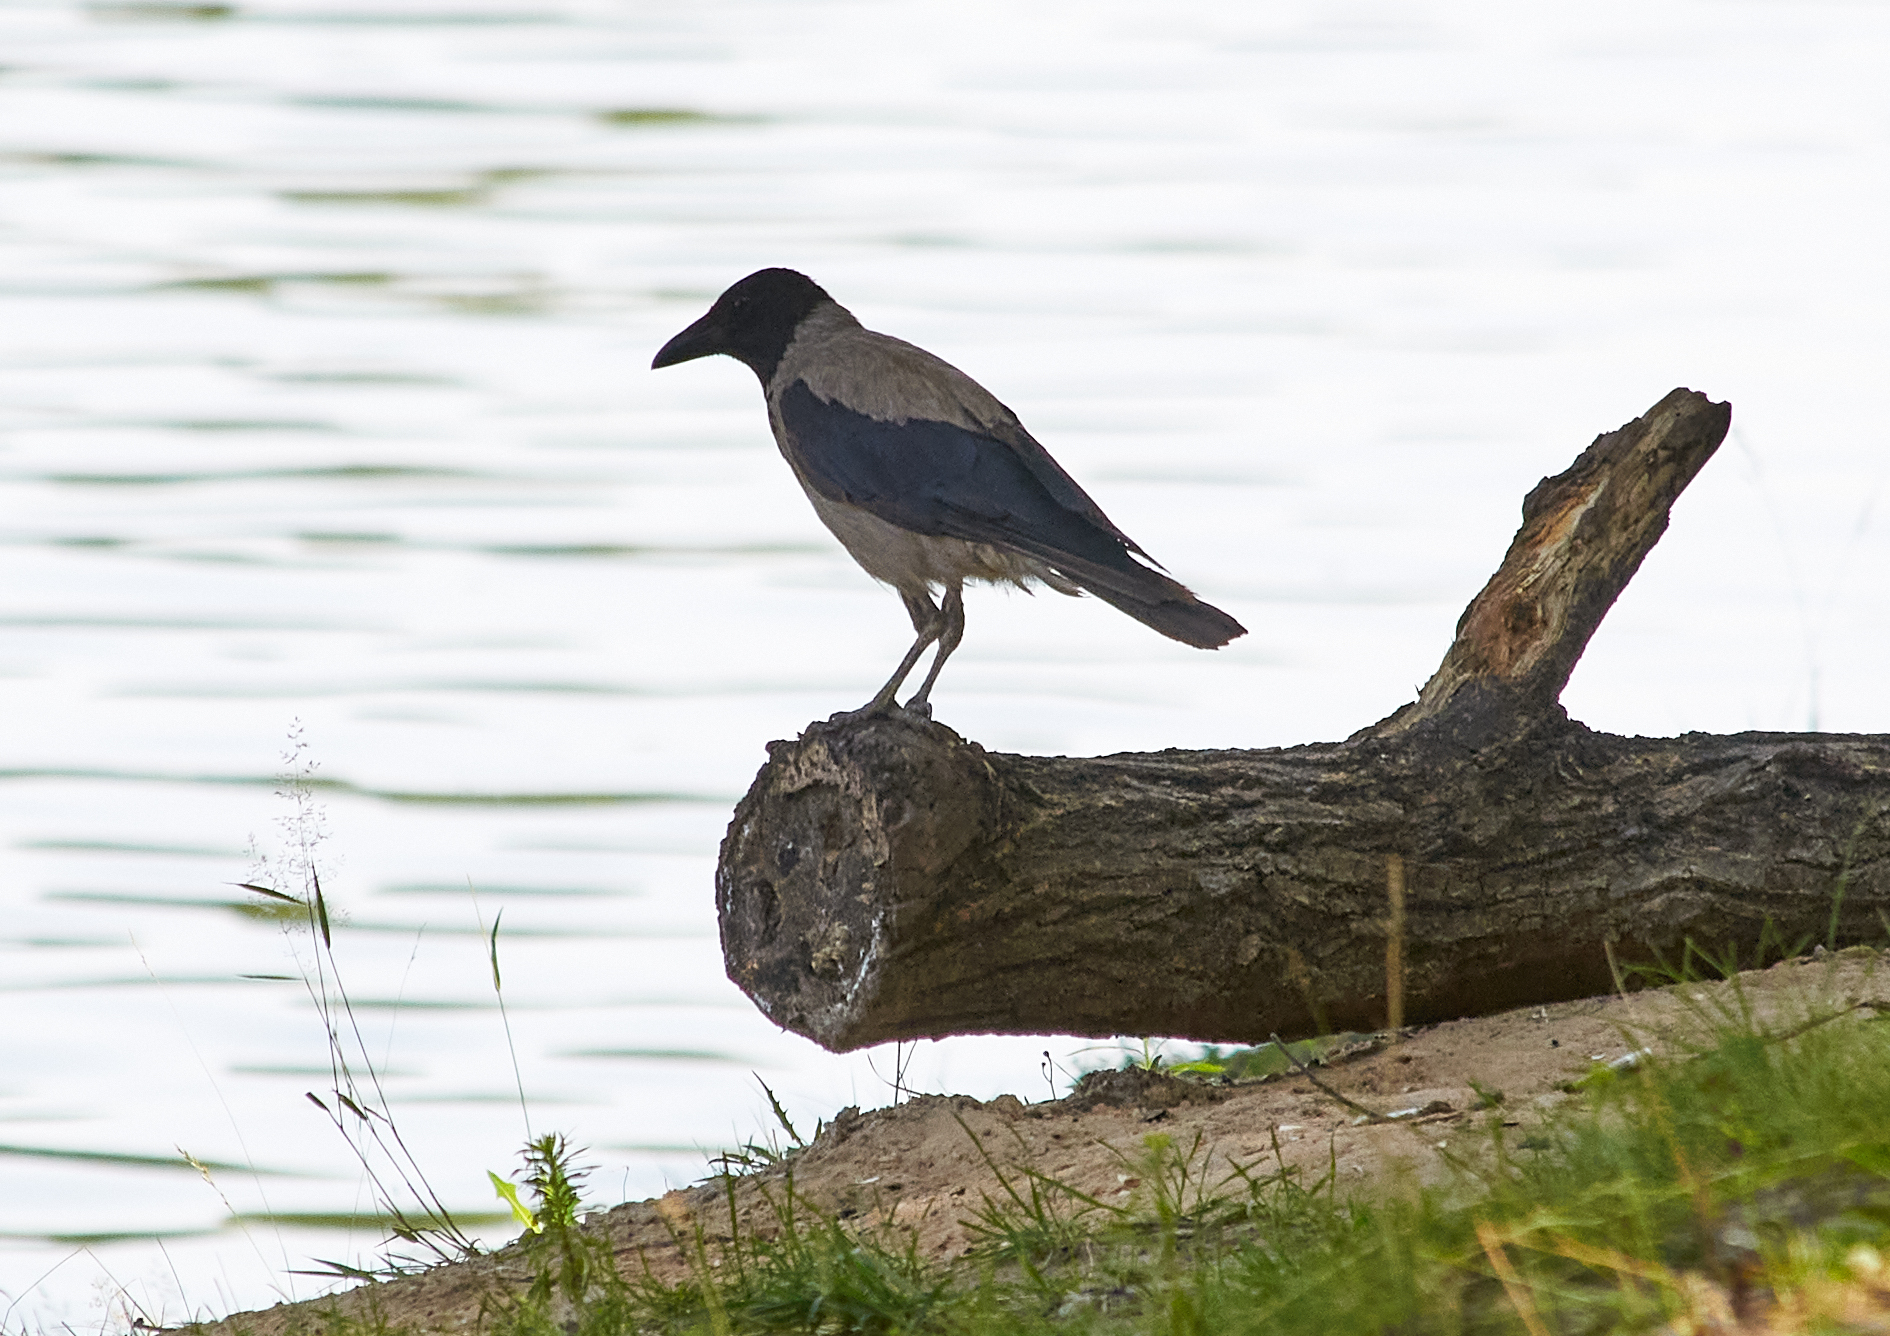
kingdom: Animalia
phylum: Chordata
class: Aves
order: Passeriformes
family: Corvidae
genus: Corvus
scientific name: Corvus cornix
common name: Hooded crow
